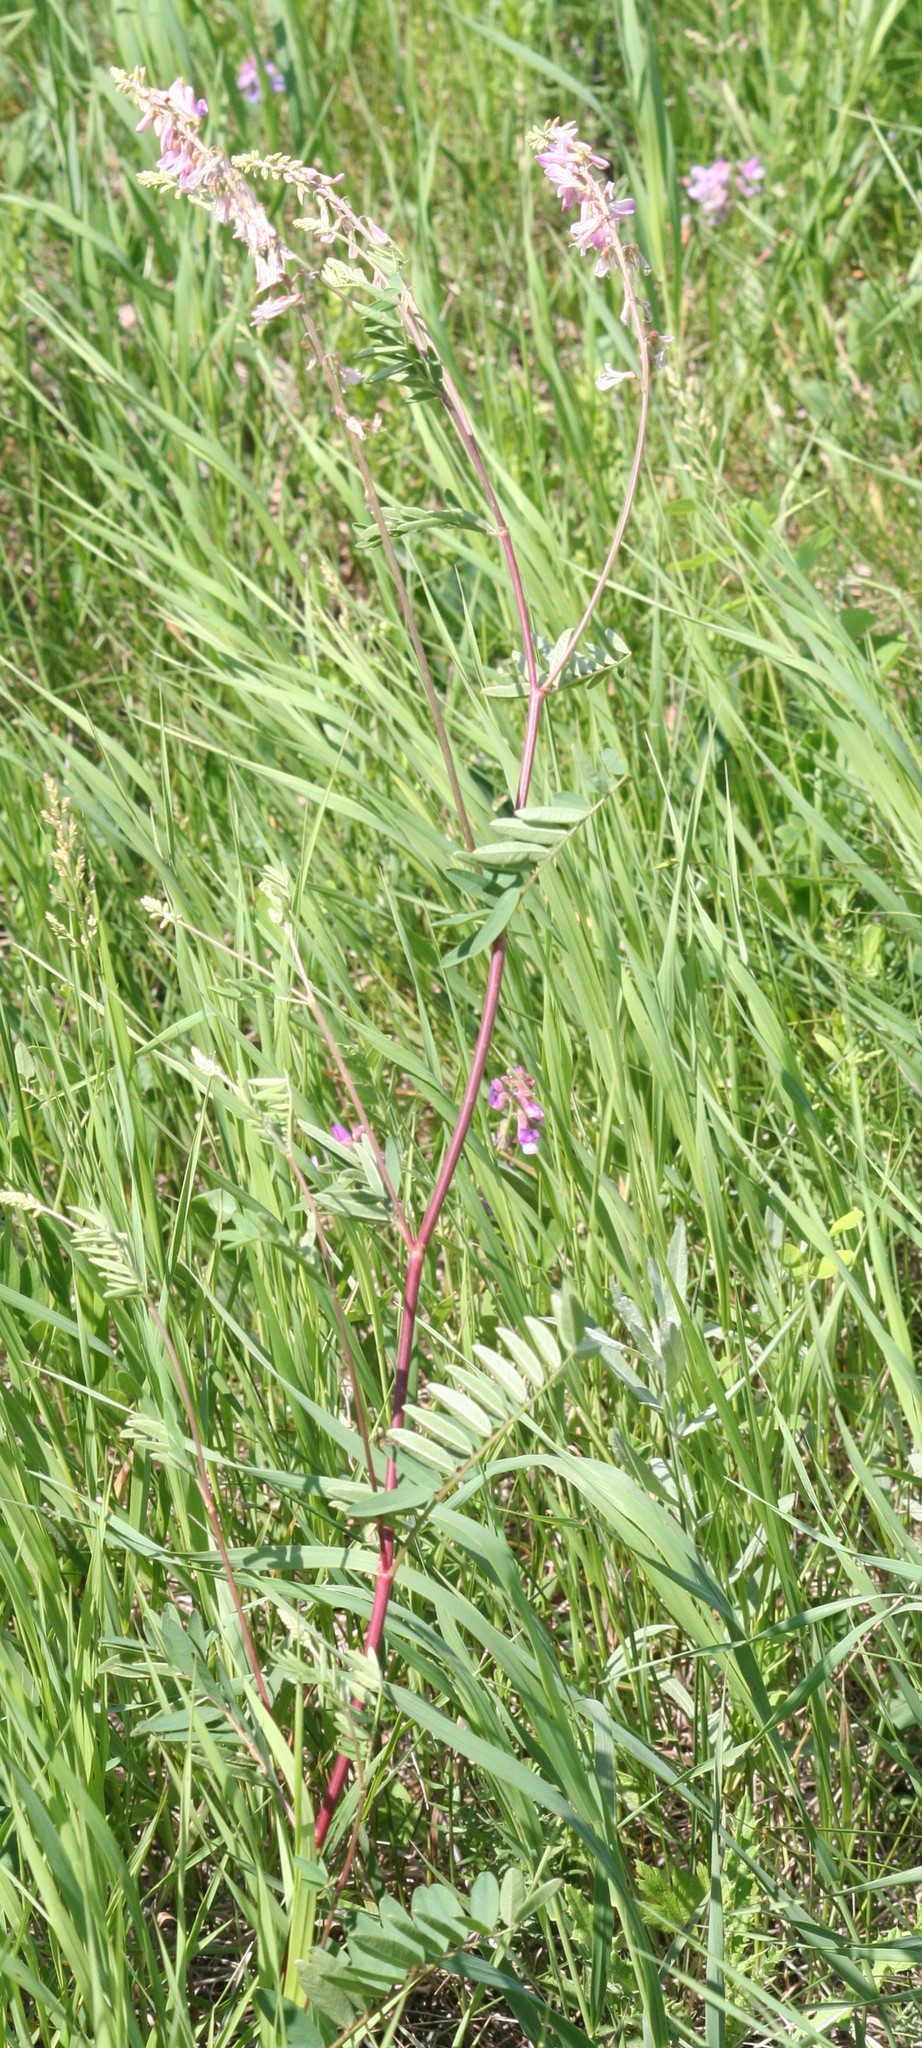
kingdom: Plantae
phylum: Tracheophyta
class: Magnoliopsida
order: Fabales
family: Fabaceae
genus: Hedysarum
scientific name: Hedysarum alpinum
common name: Alpine sweet-vetch
